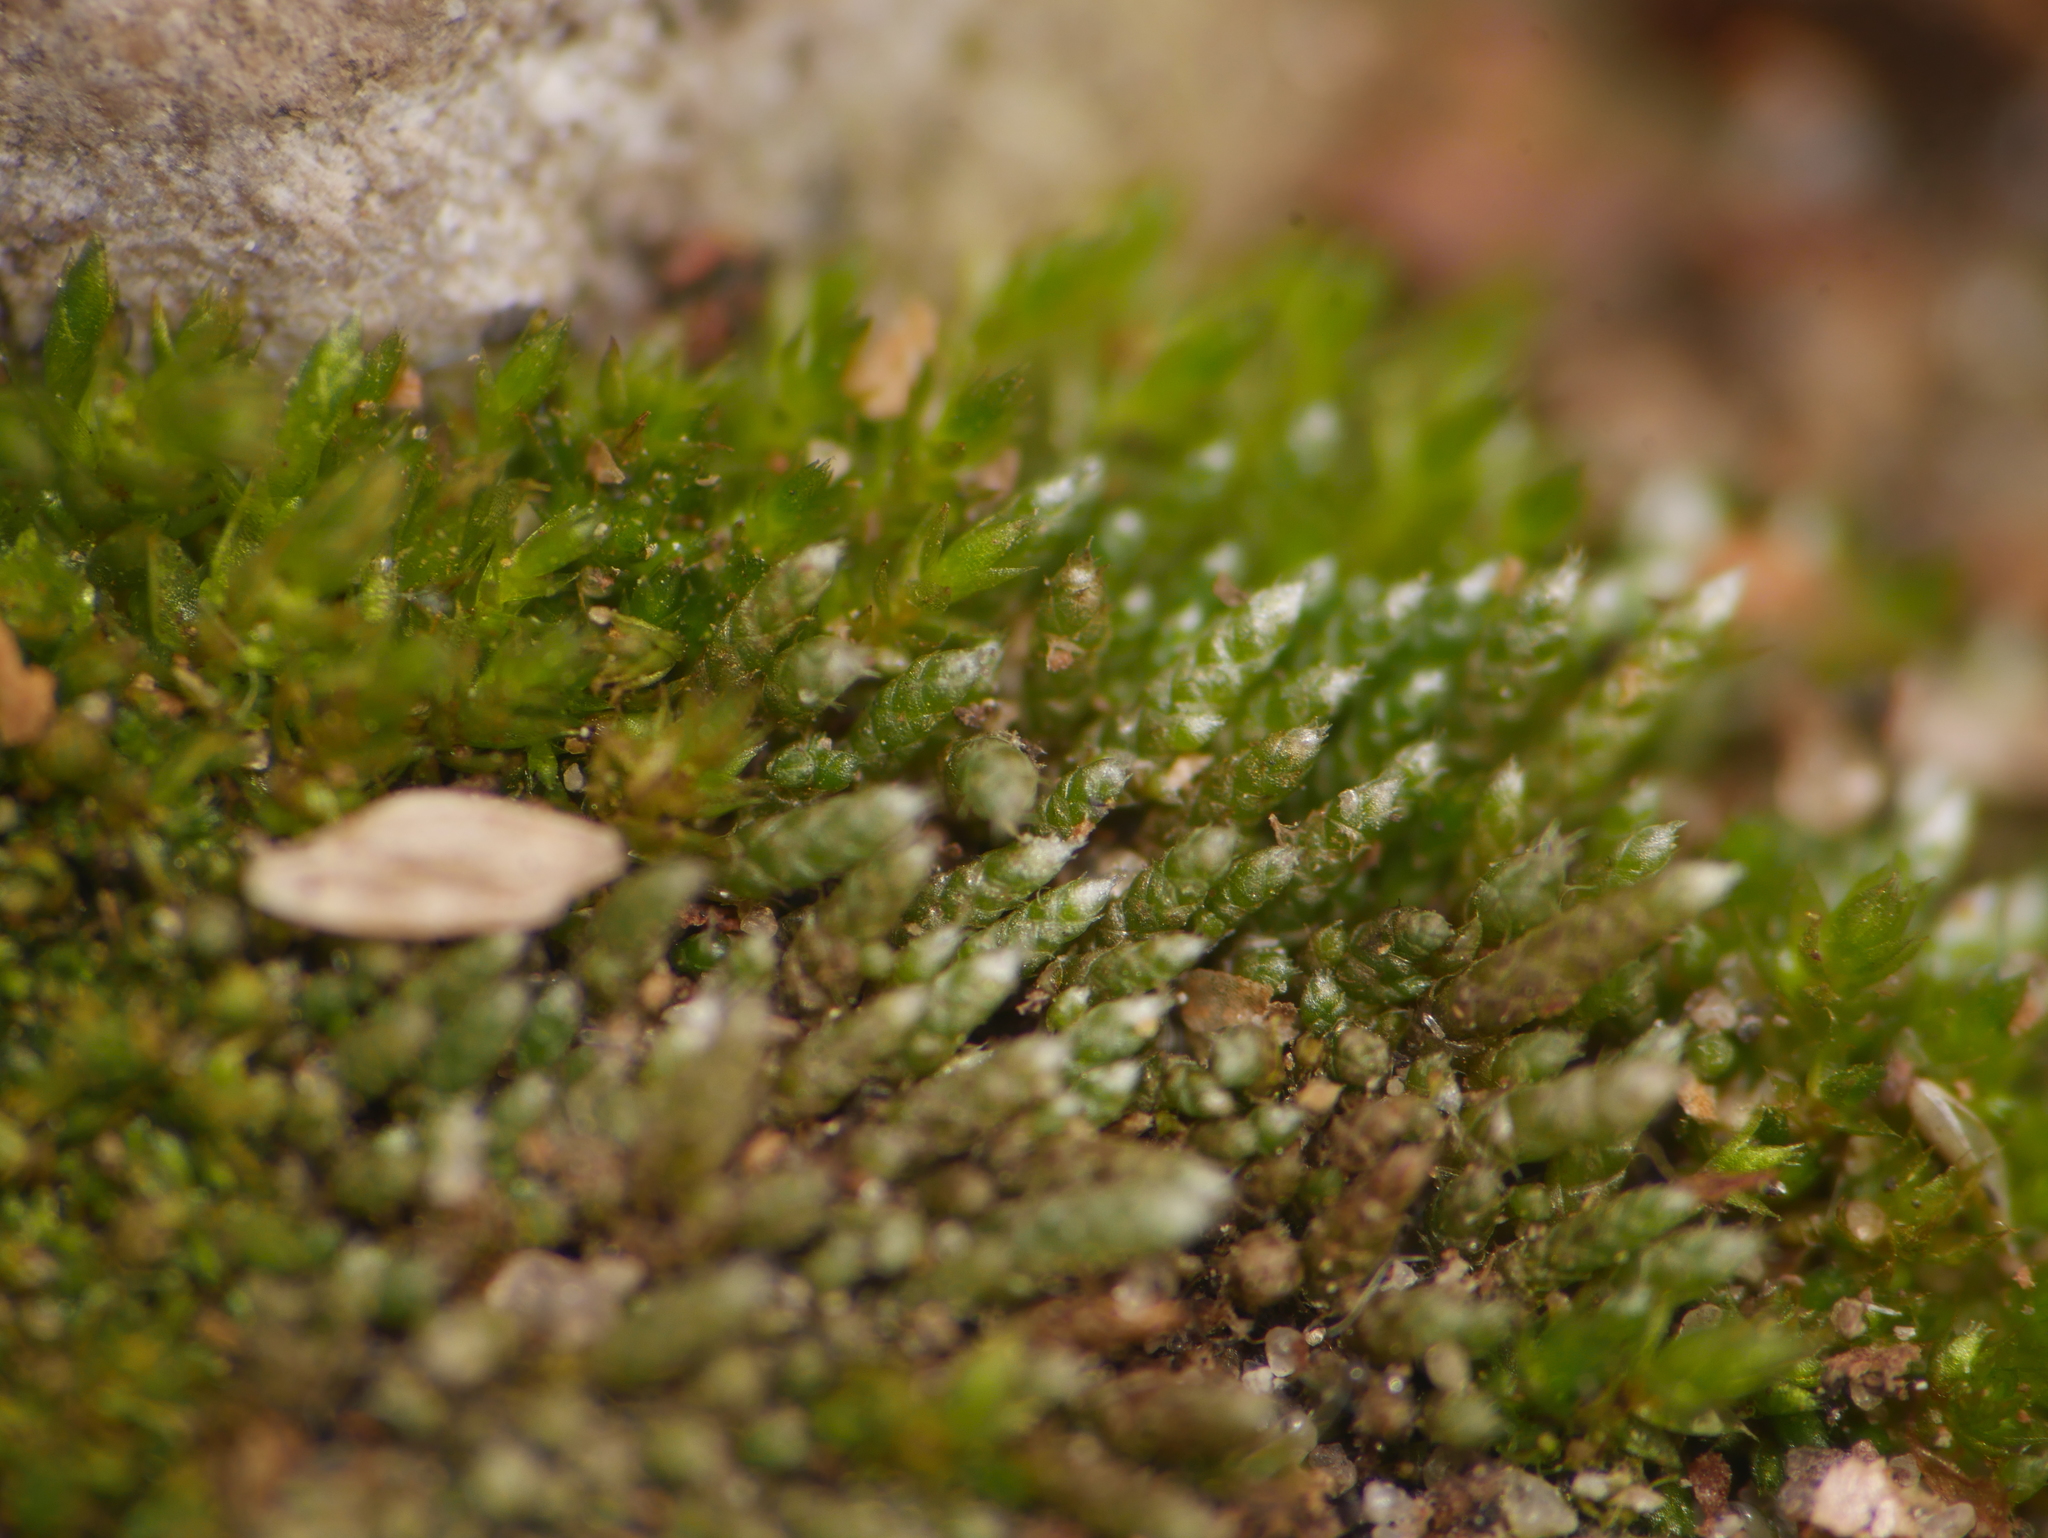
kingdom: Plantae
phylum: Bryophyta
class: Bryopsida
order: Bryales
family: Bryaceae
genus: Bryum
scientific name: Bryum argenteum
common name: Silver-moss
